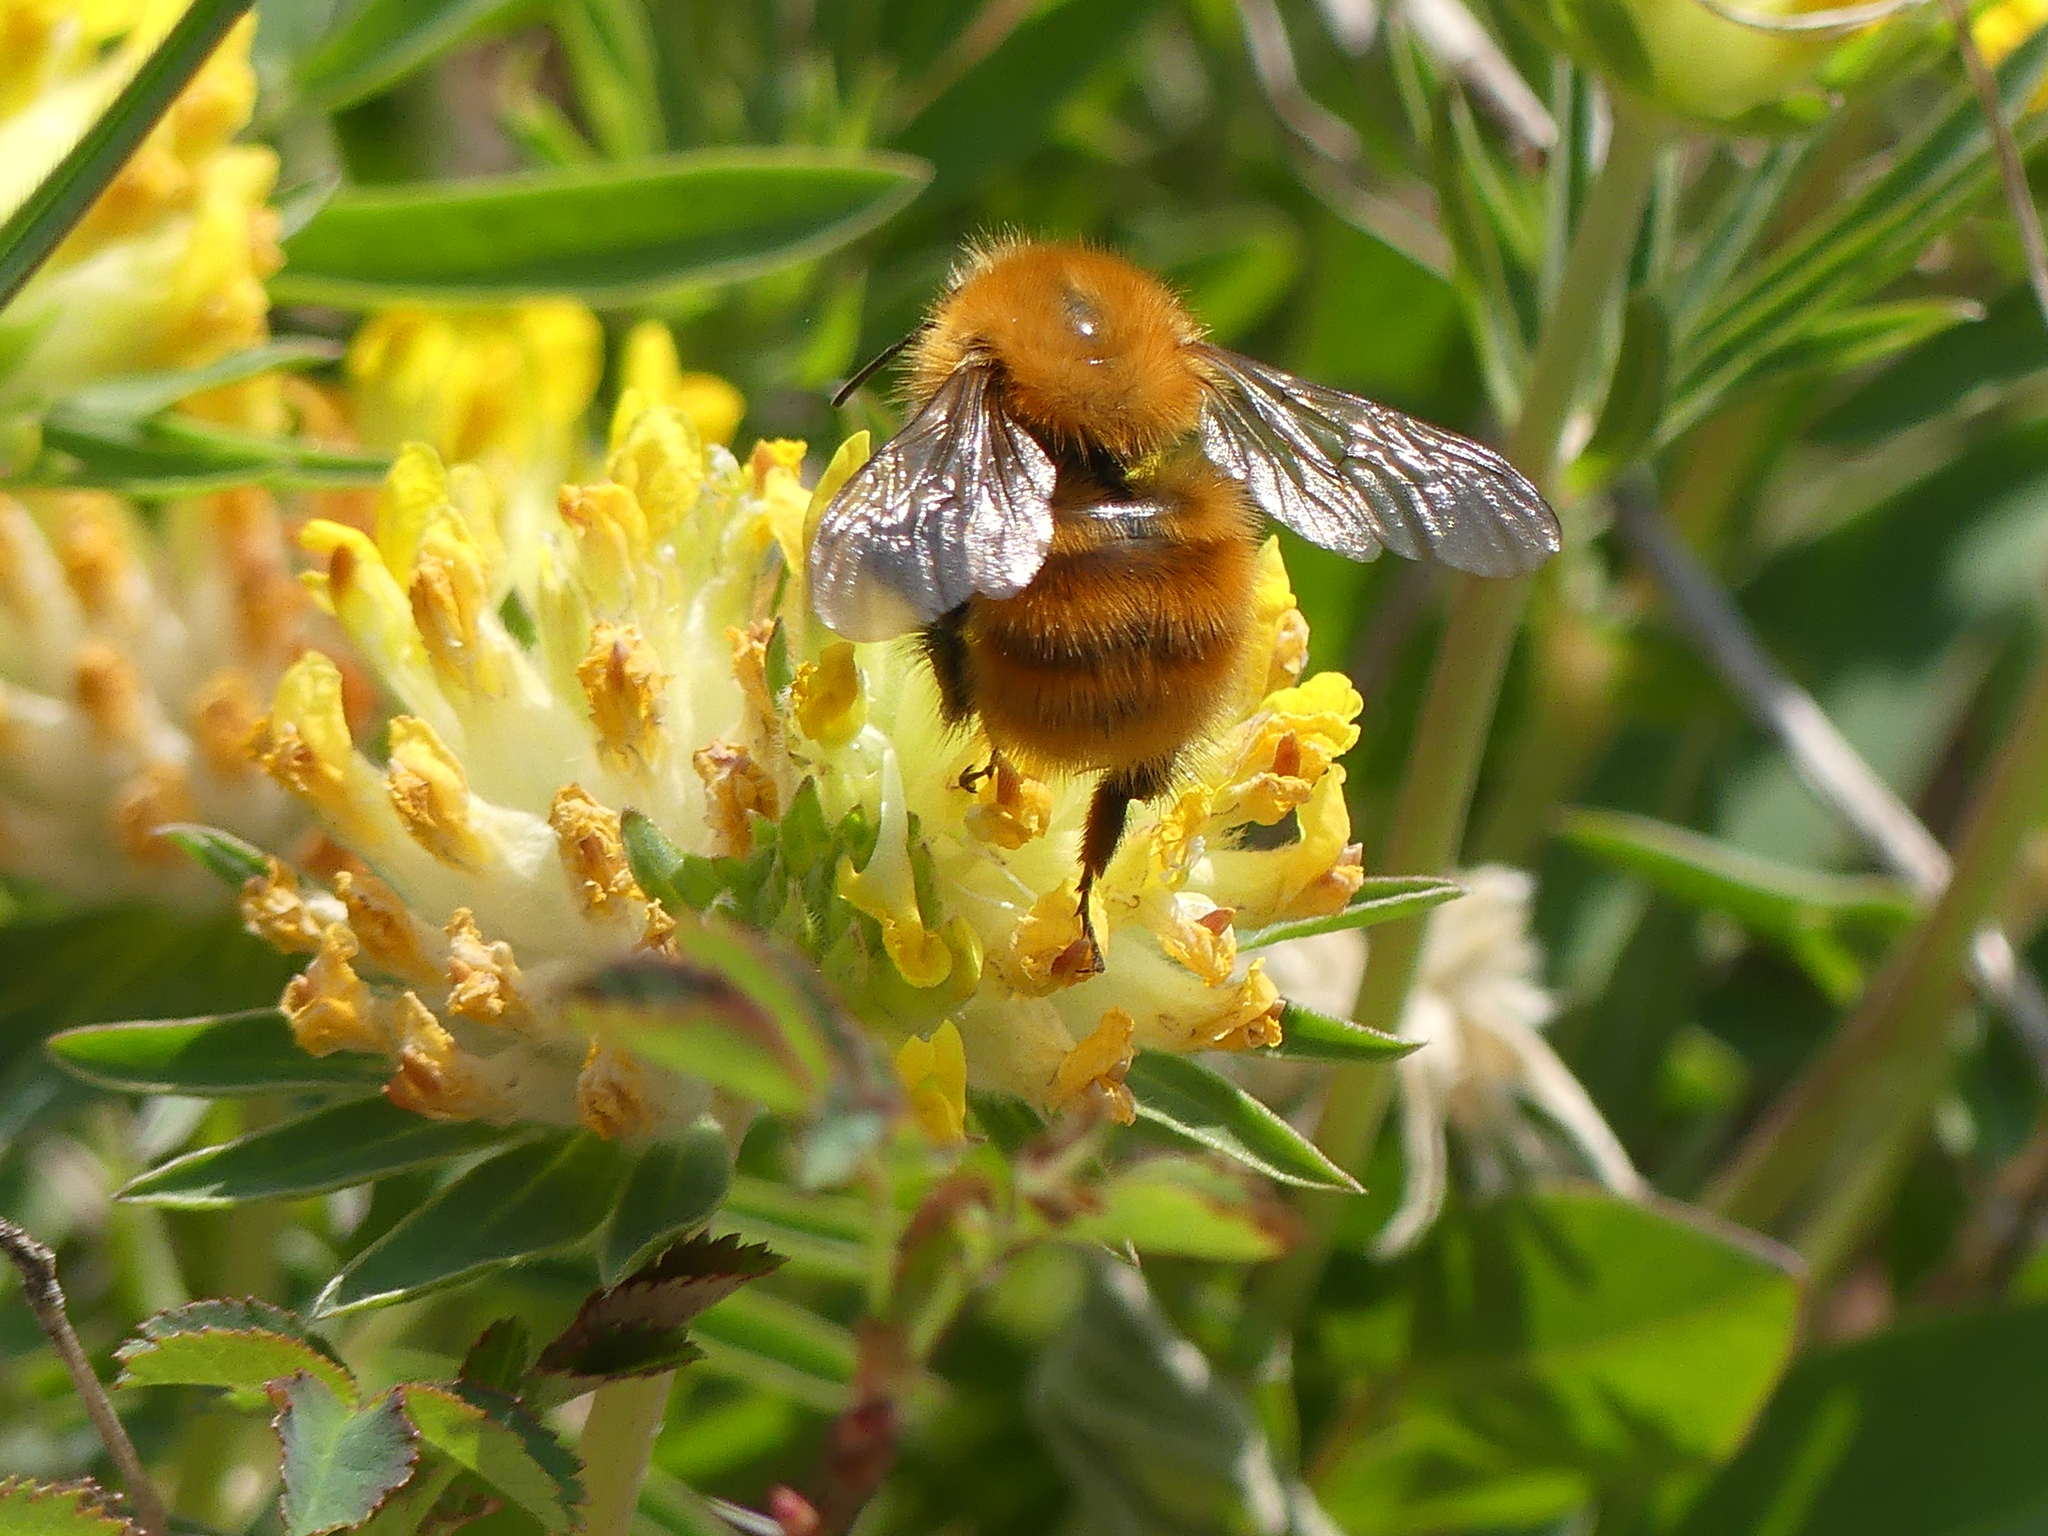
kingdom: Animalia
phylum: Arthropoda
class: Insecta
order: Hymenoptera
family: Apidae
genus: Bombus
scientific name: Bombus pascuorum
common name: Common carder bee
